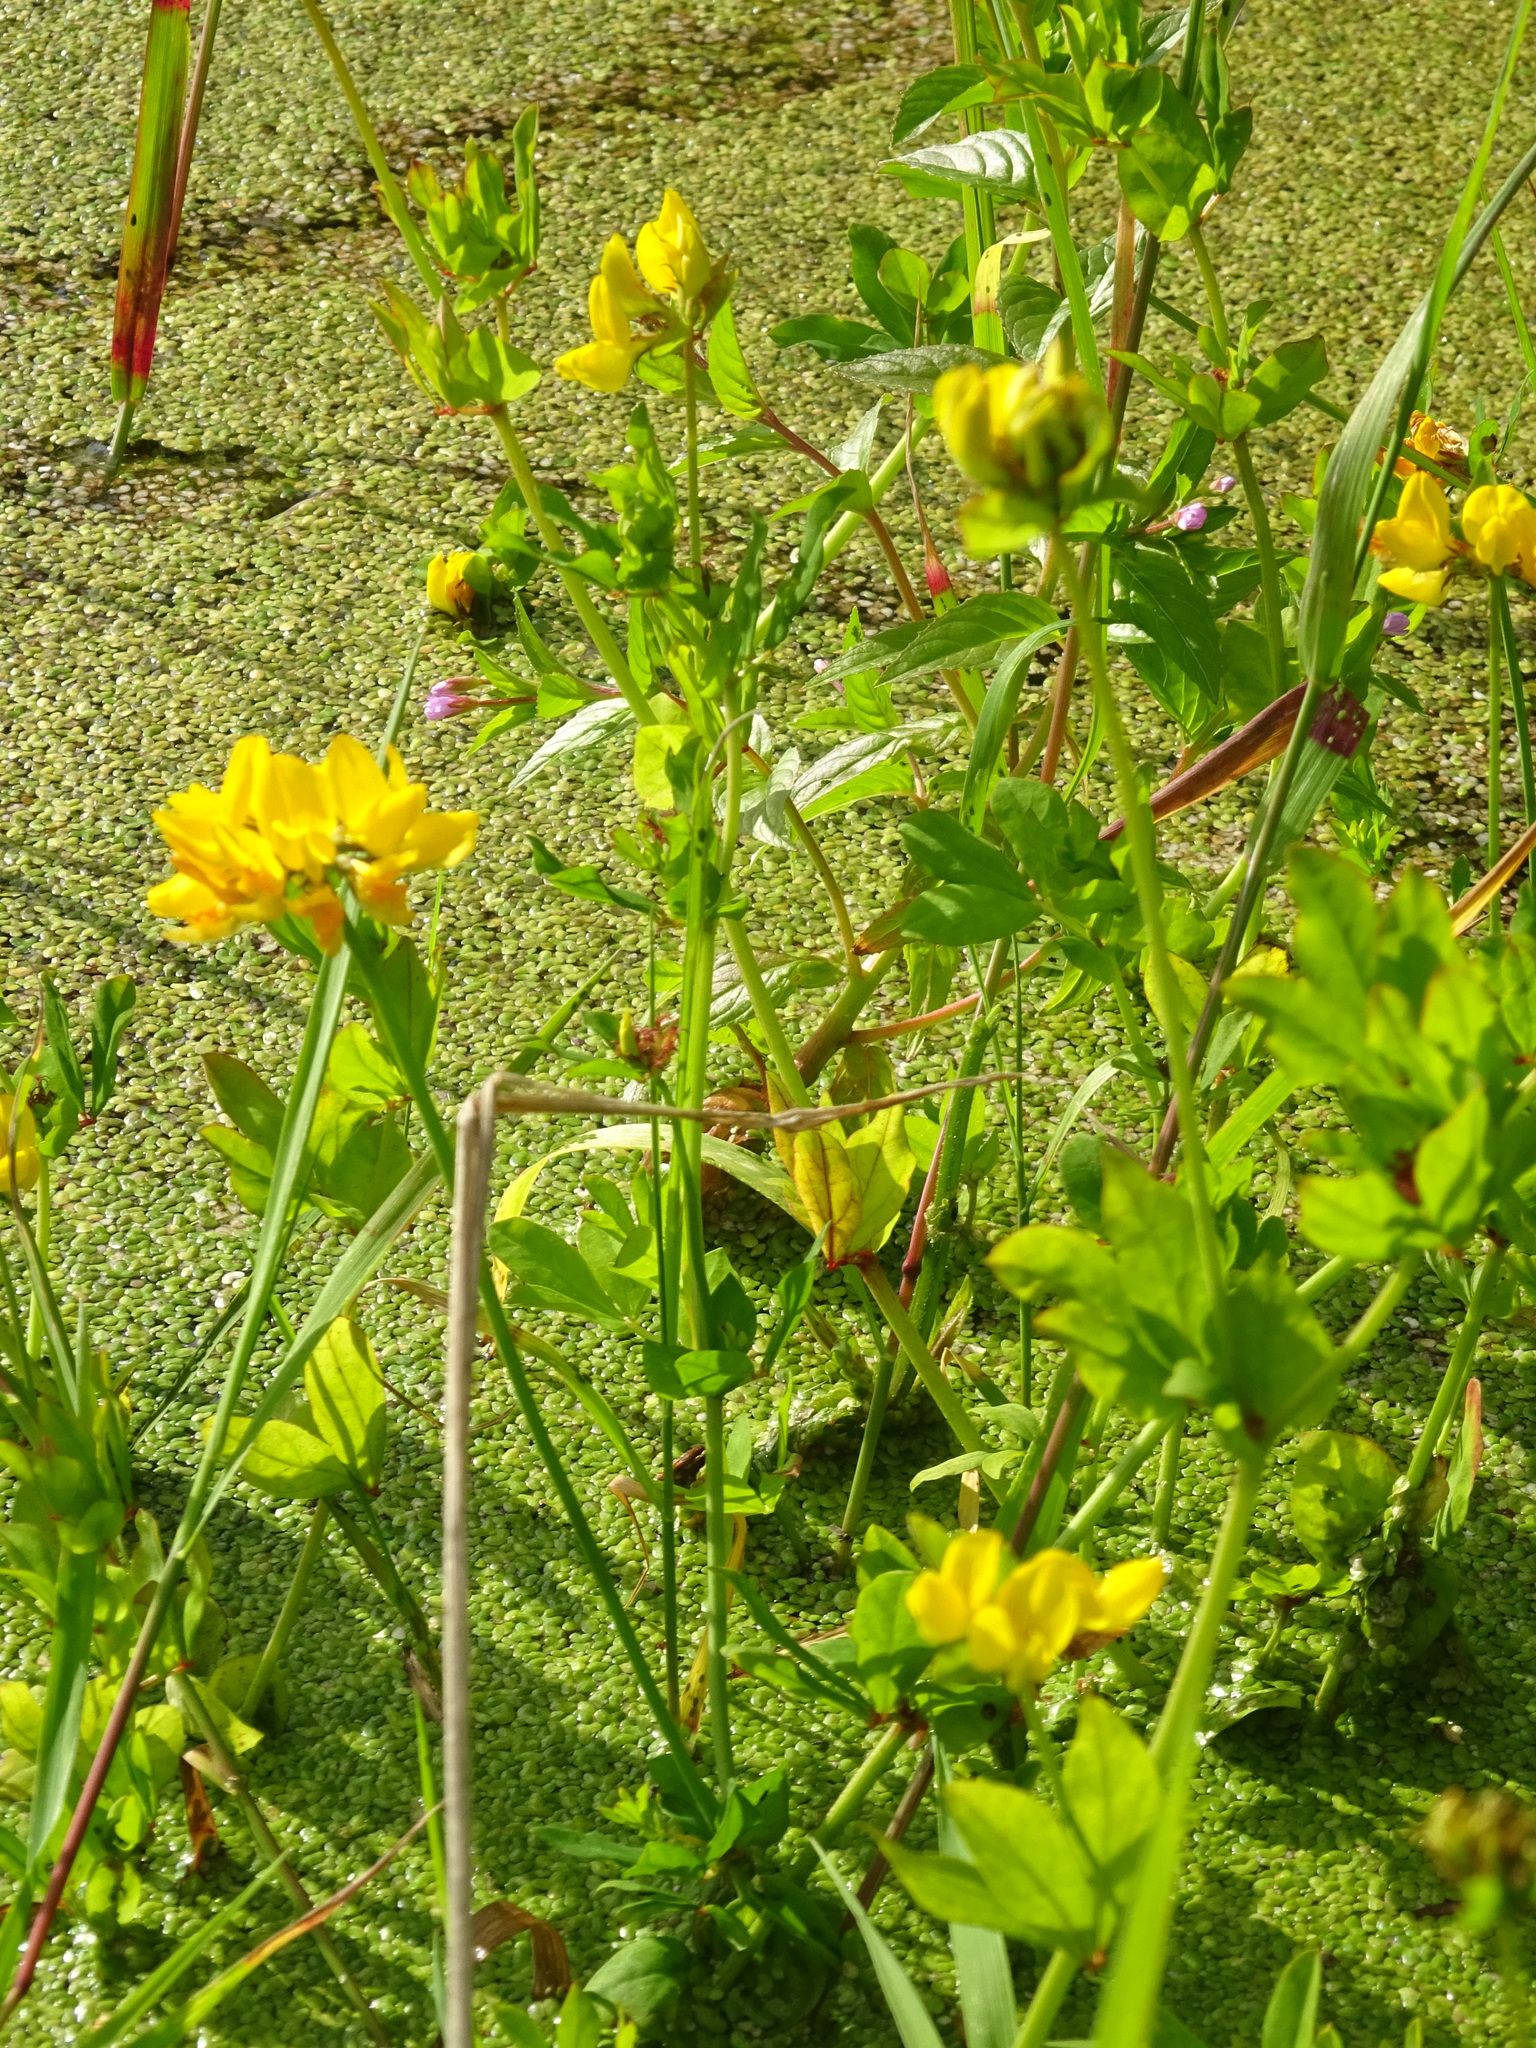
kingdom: Plantae
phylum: Tracheophyta
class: Magnoliopsida
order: Fabales
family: Fabaceae
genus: Lotus
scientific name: Lotus pedunculatus
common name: Greater birdsfoot-trefoil
